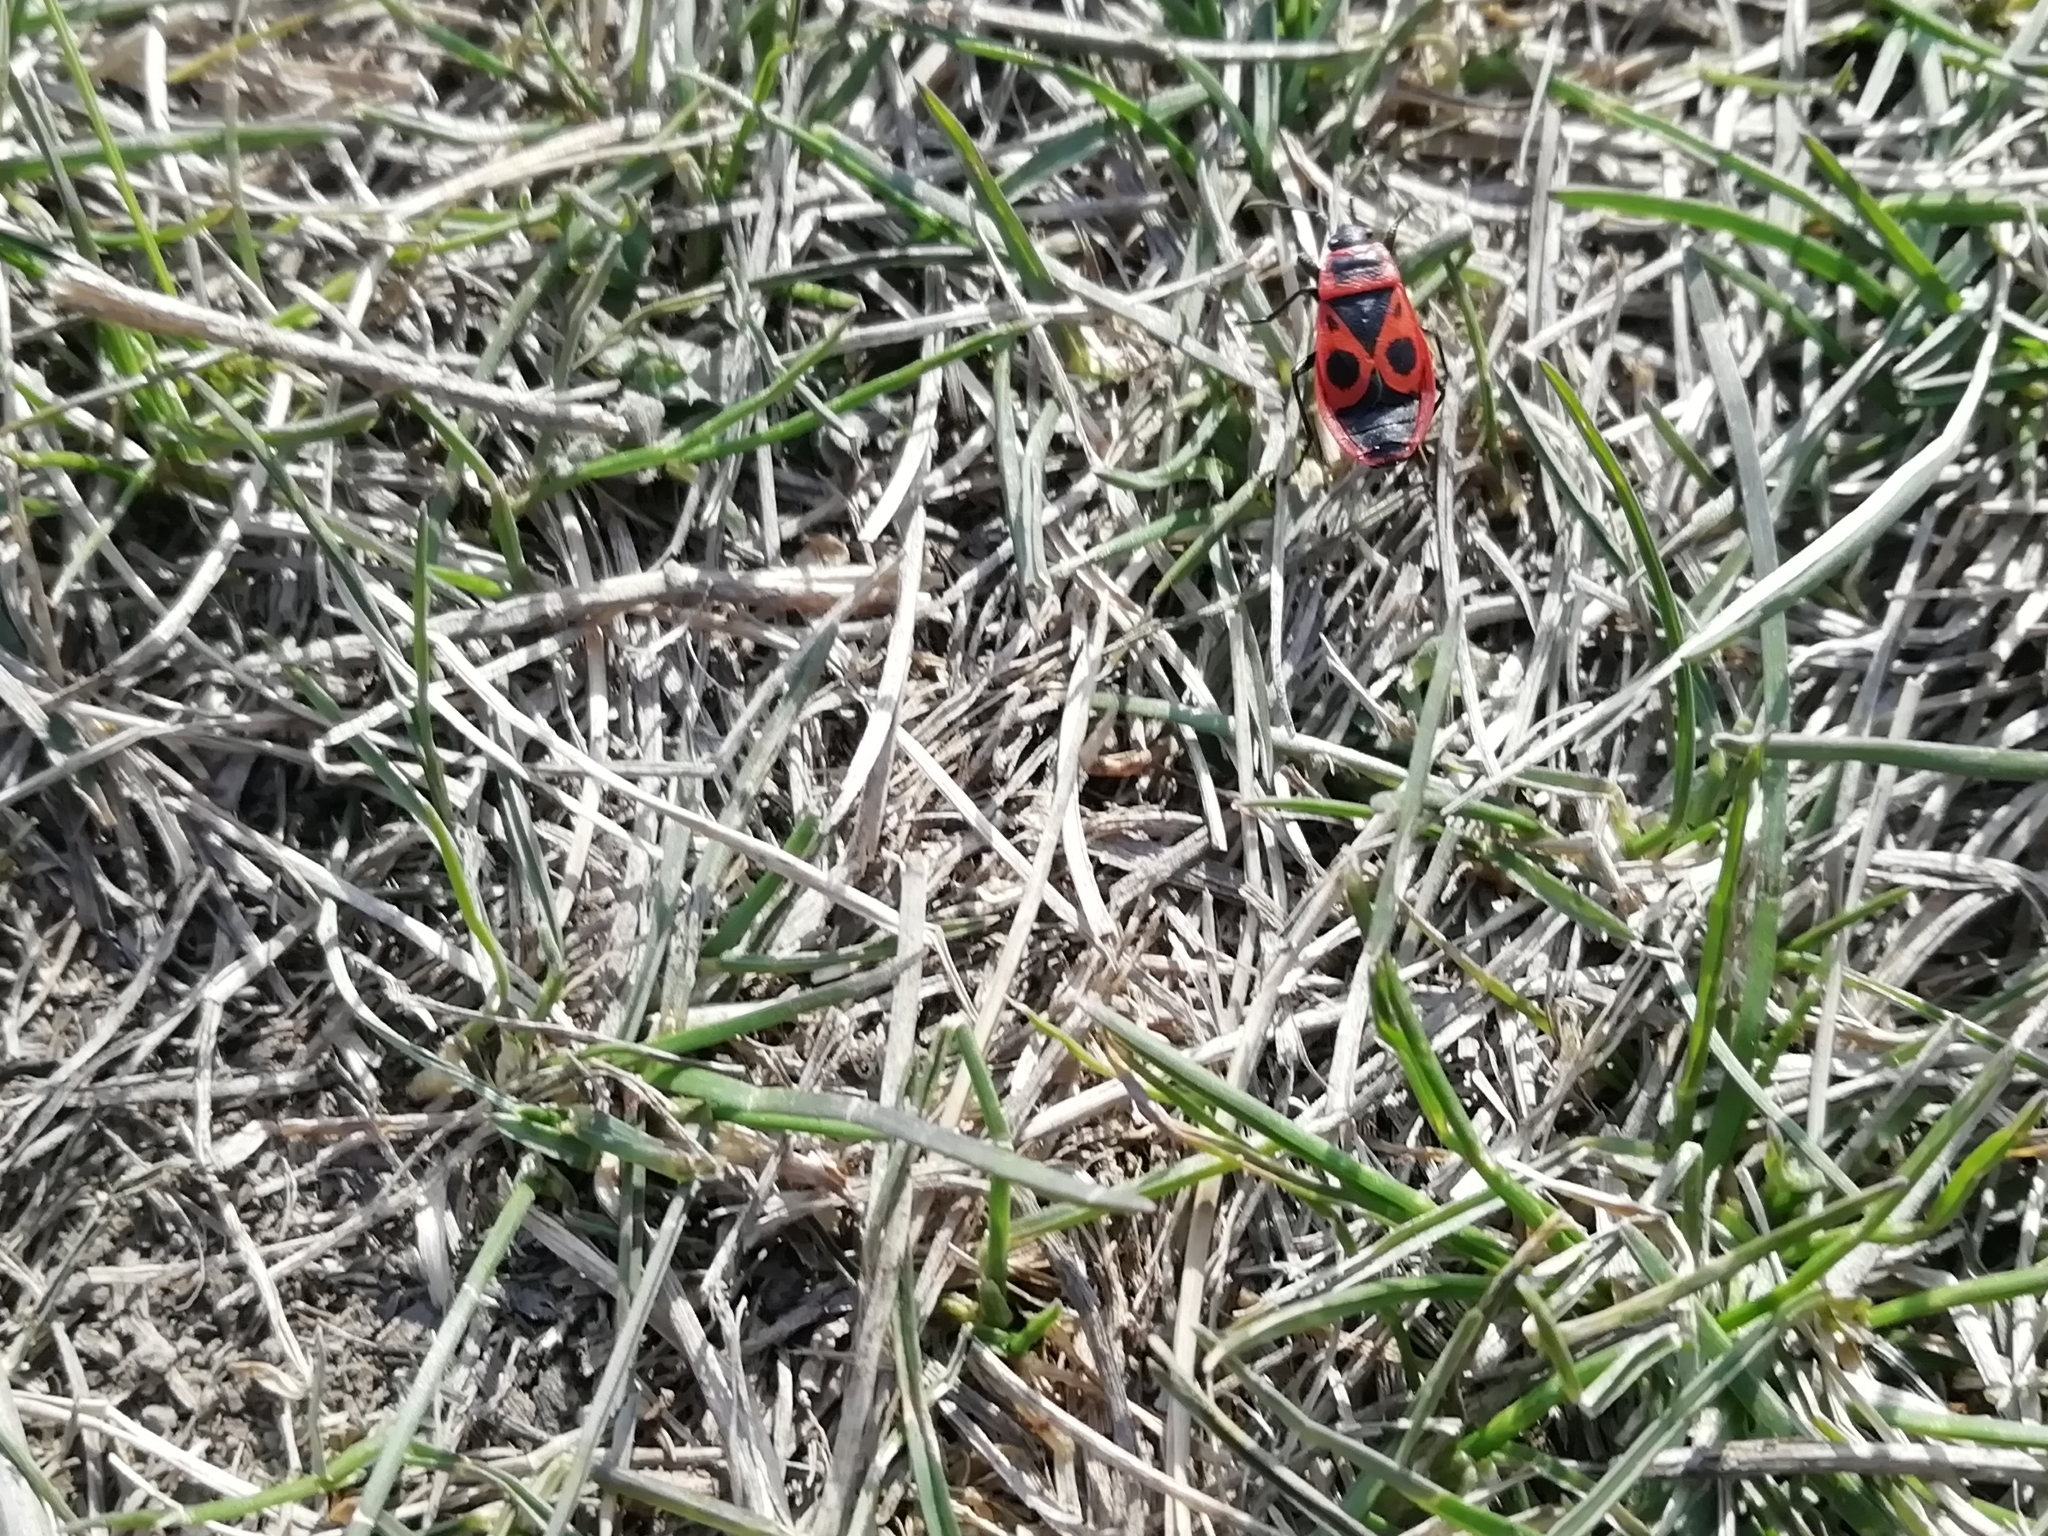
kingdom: Animalia
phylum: Arthropoda
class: Insecta
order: Hemiptera
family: Pyrrhocoridae
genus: Pyrrhocoris
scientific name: Pyrrhocoris apterus
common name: Firebug
